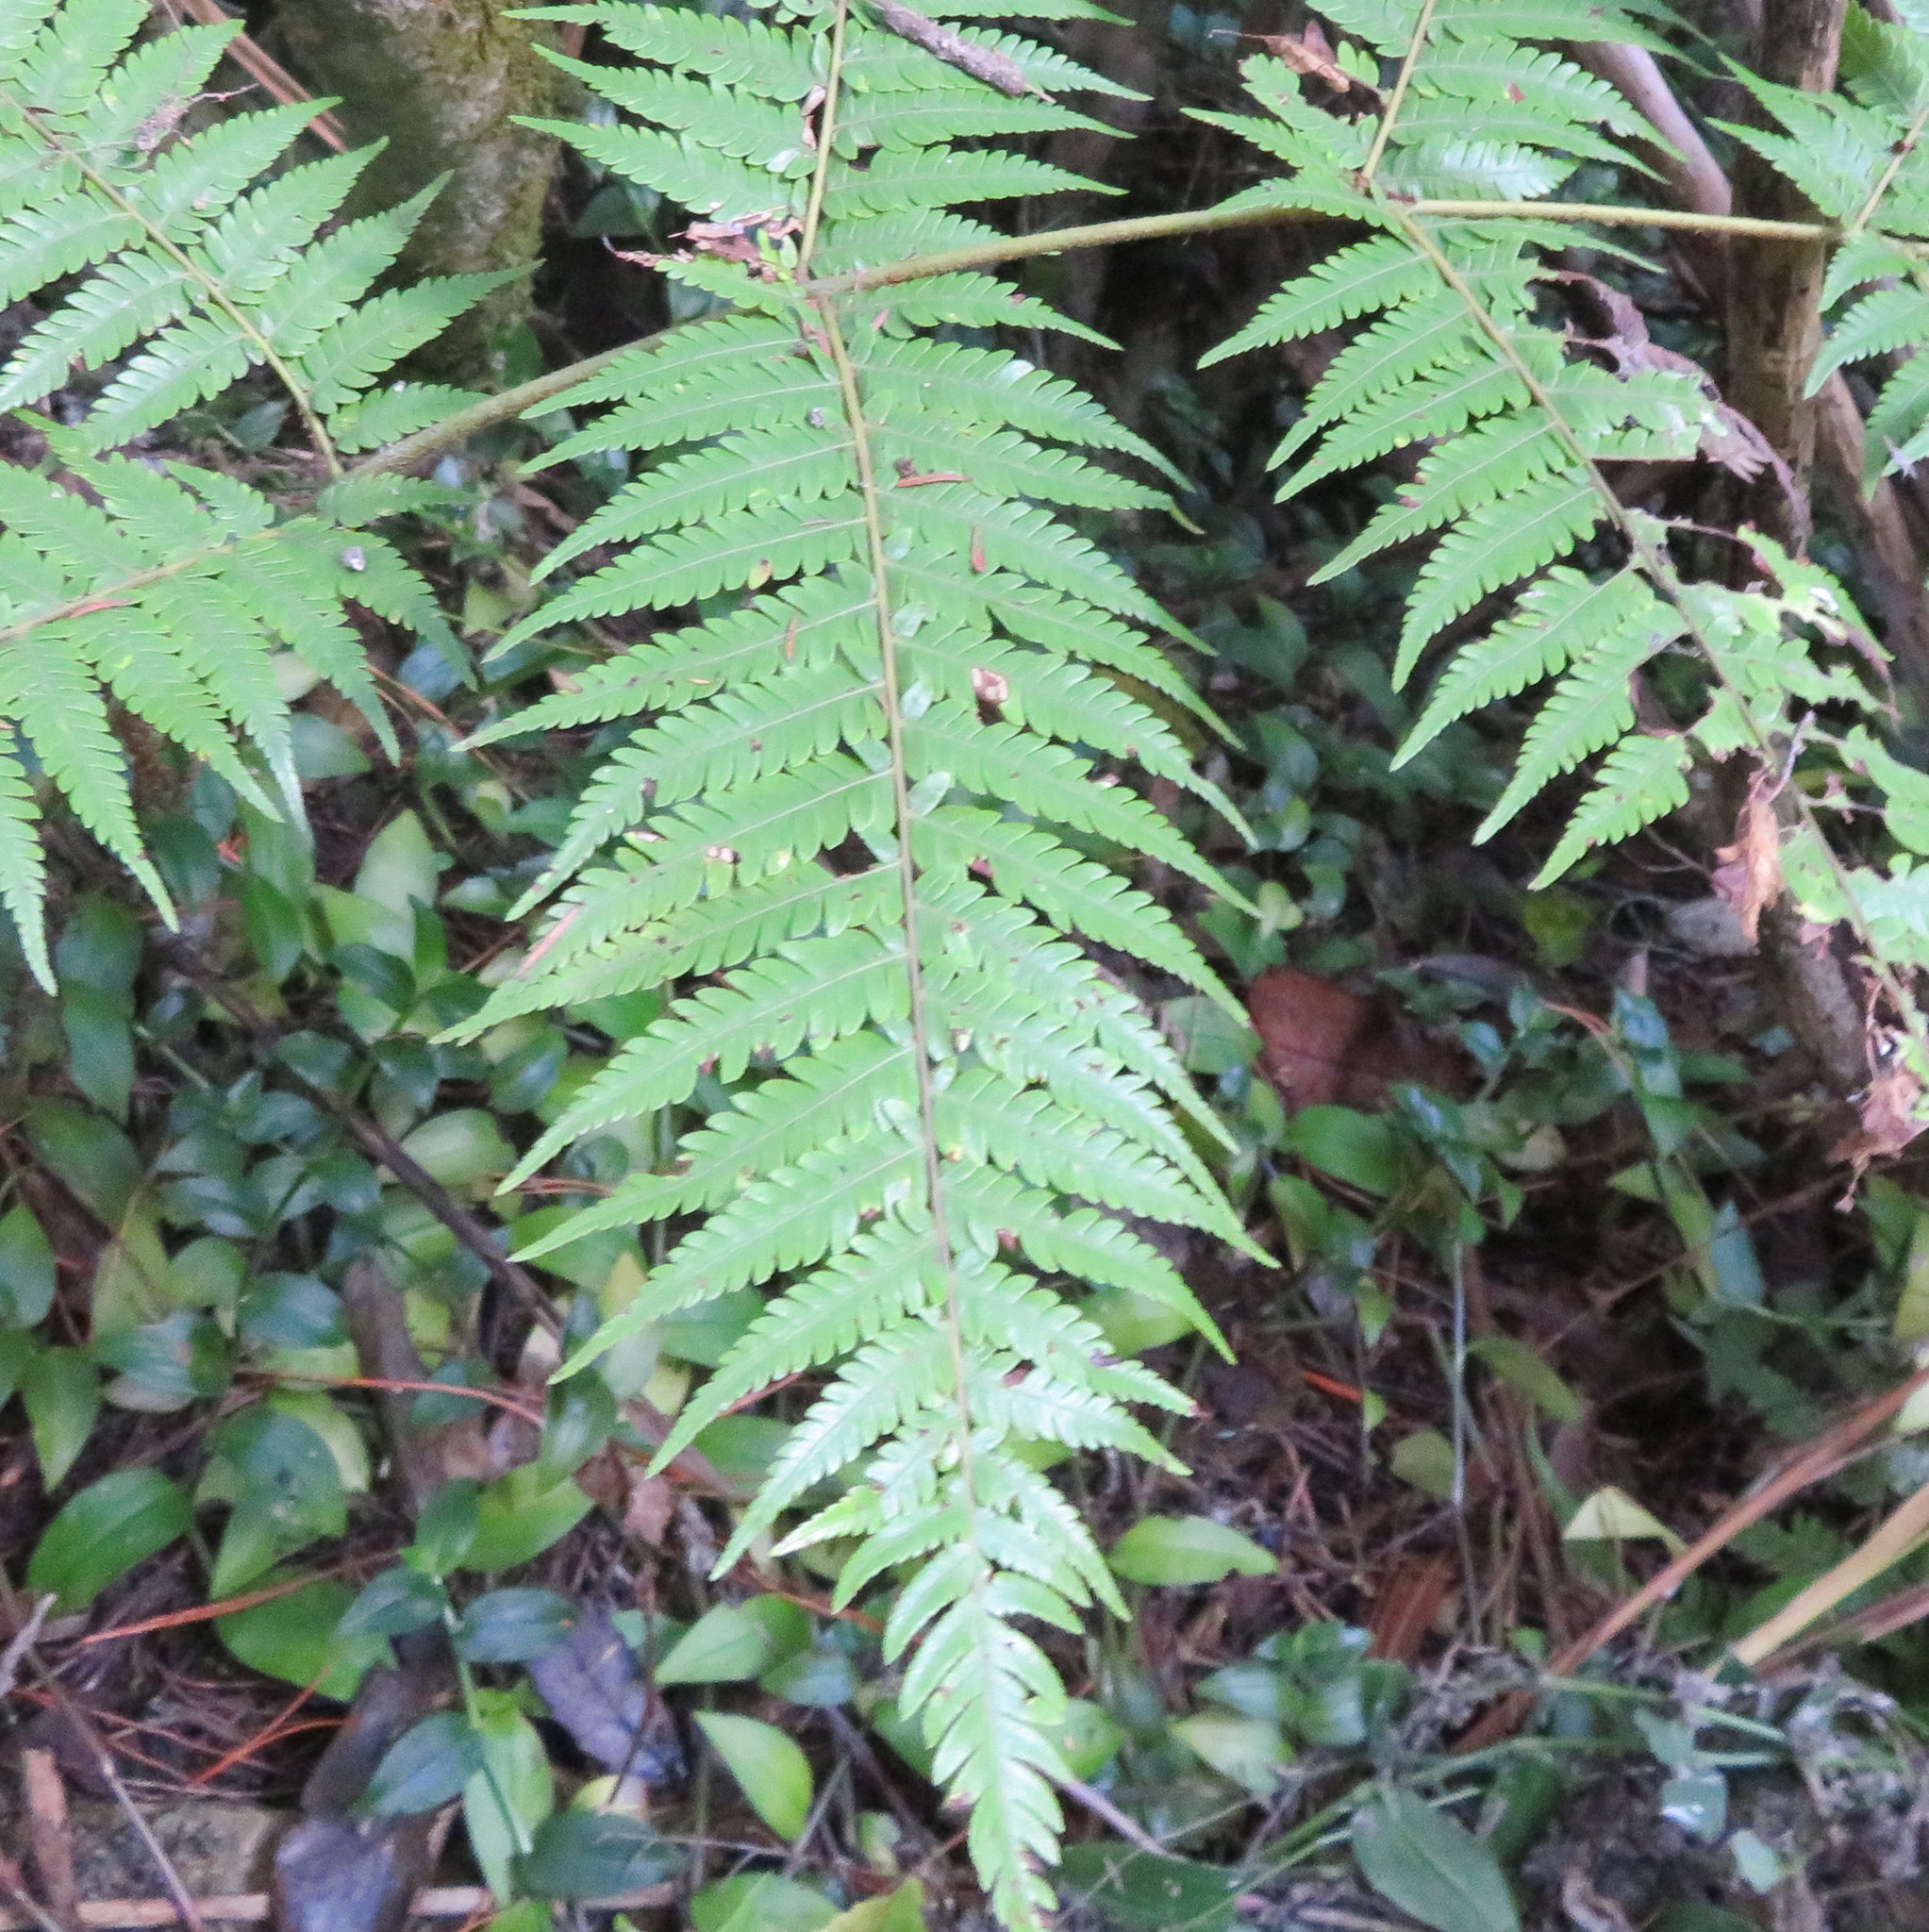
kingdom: Plantae
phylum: Tracheophyta
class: Polypodiopsida
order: Cyatheales
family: Cyatheaceae
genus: Alsophila
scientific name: Alsophila dealbata
